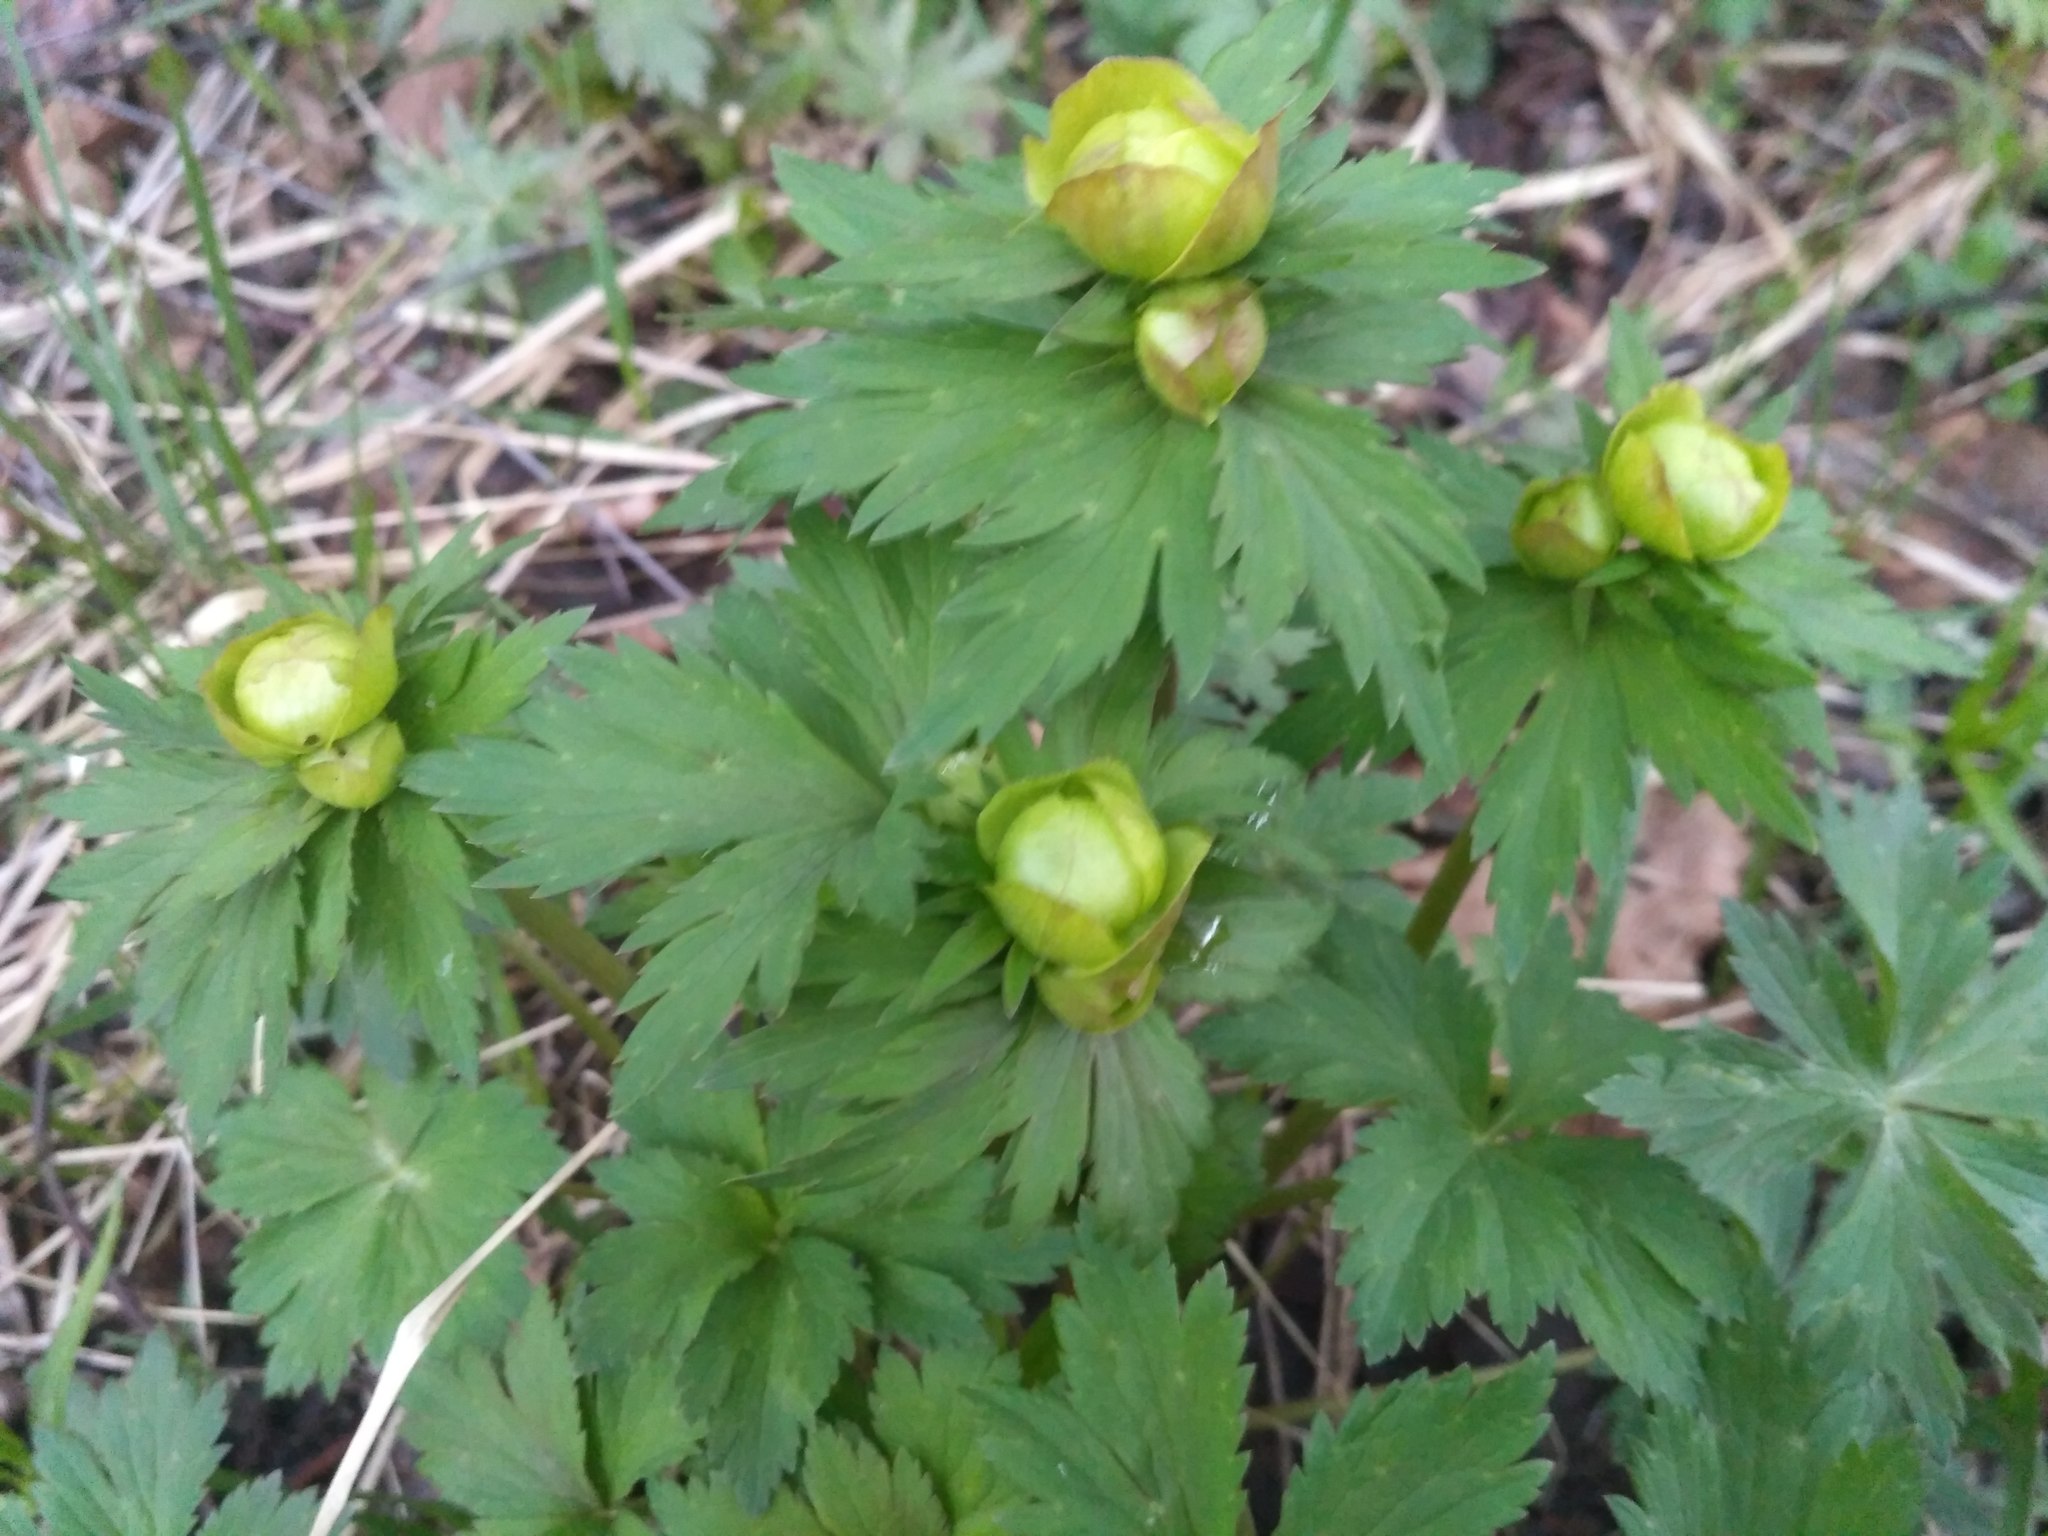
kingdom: Plantae
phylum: Tracheophyta
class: Magnoliopsida
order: Ranunculales
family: Ranunculaceae
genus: Trollius
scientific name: Trollius europaeus
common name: European globeflower
